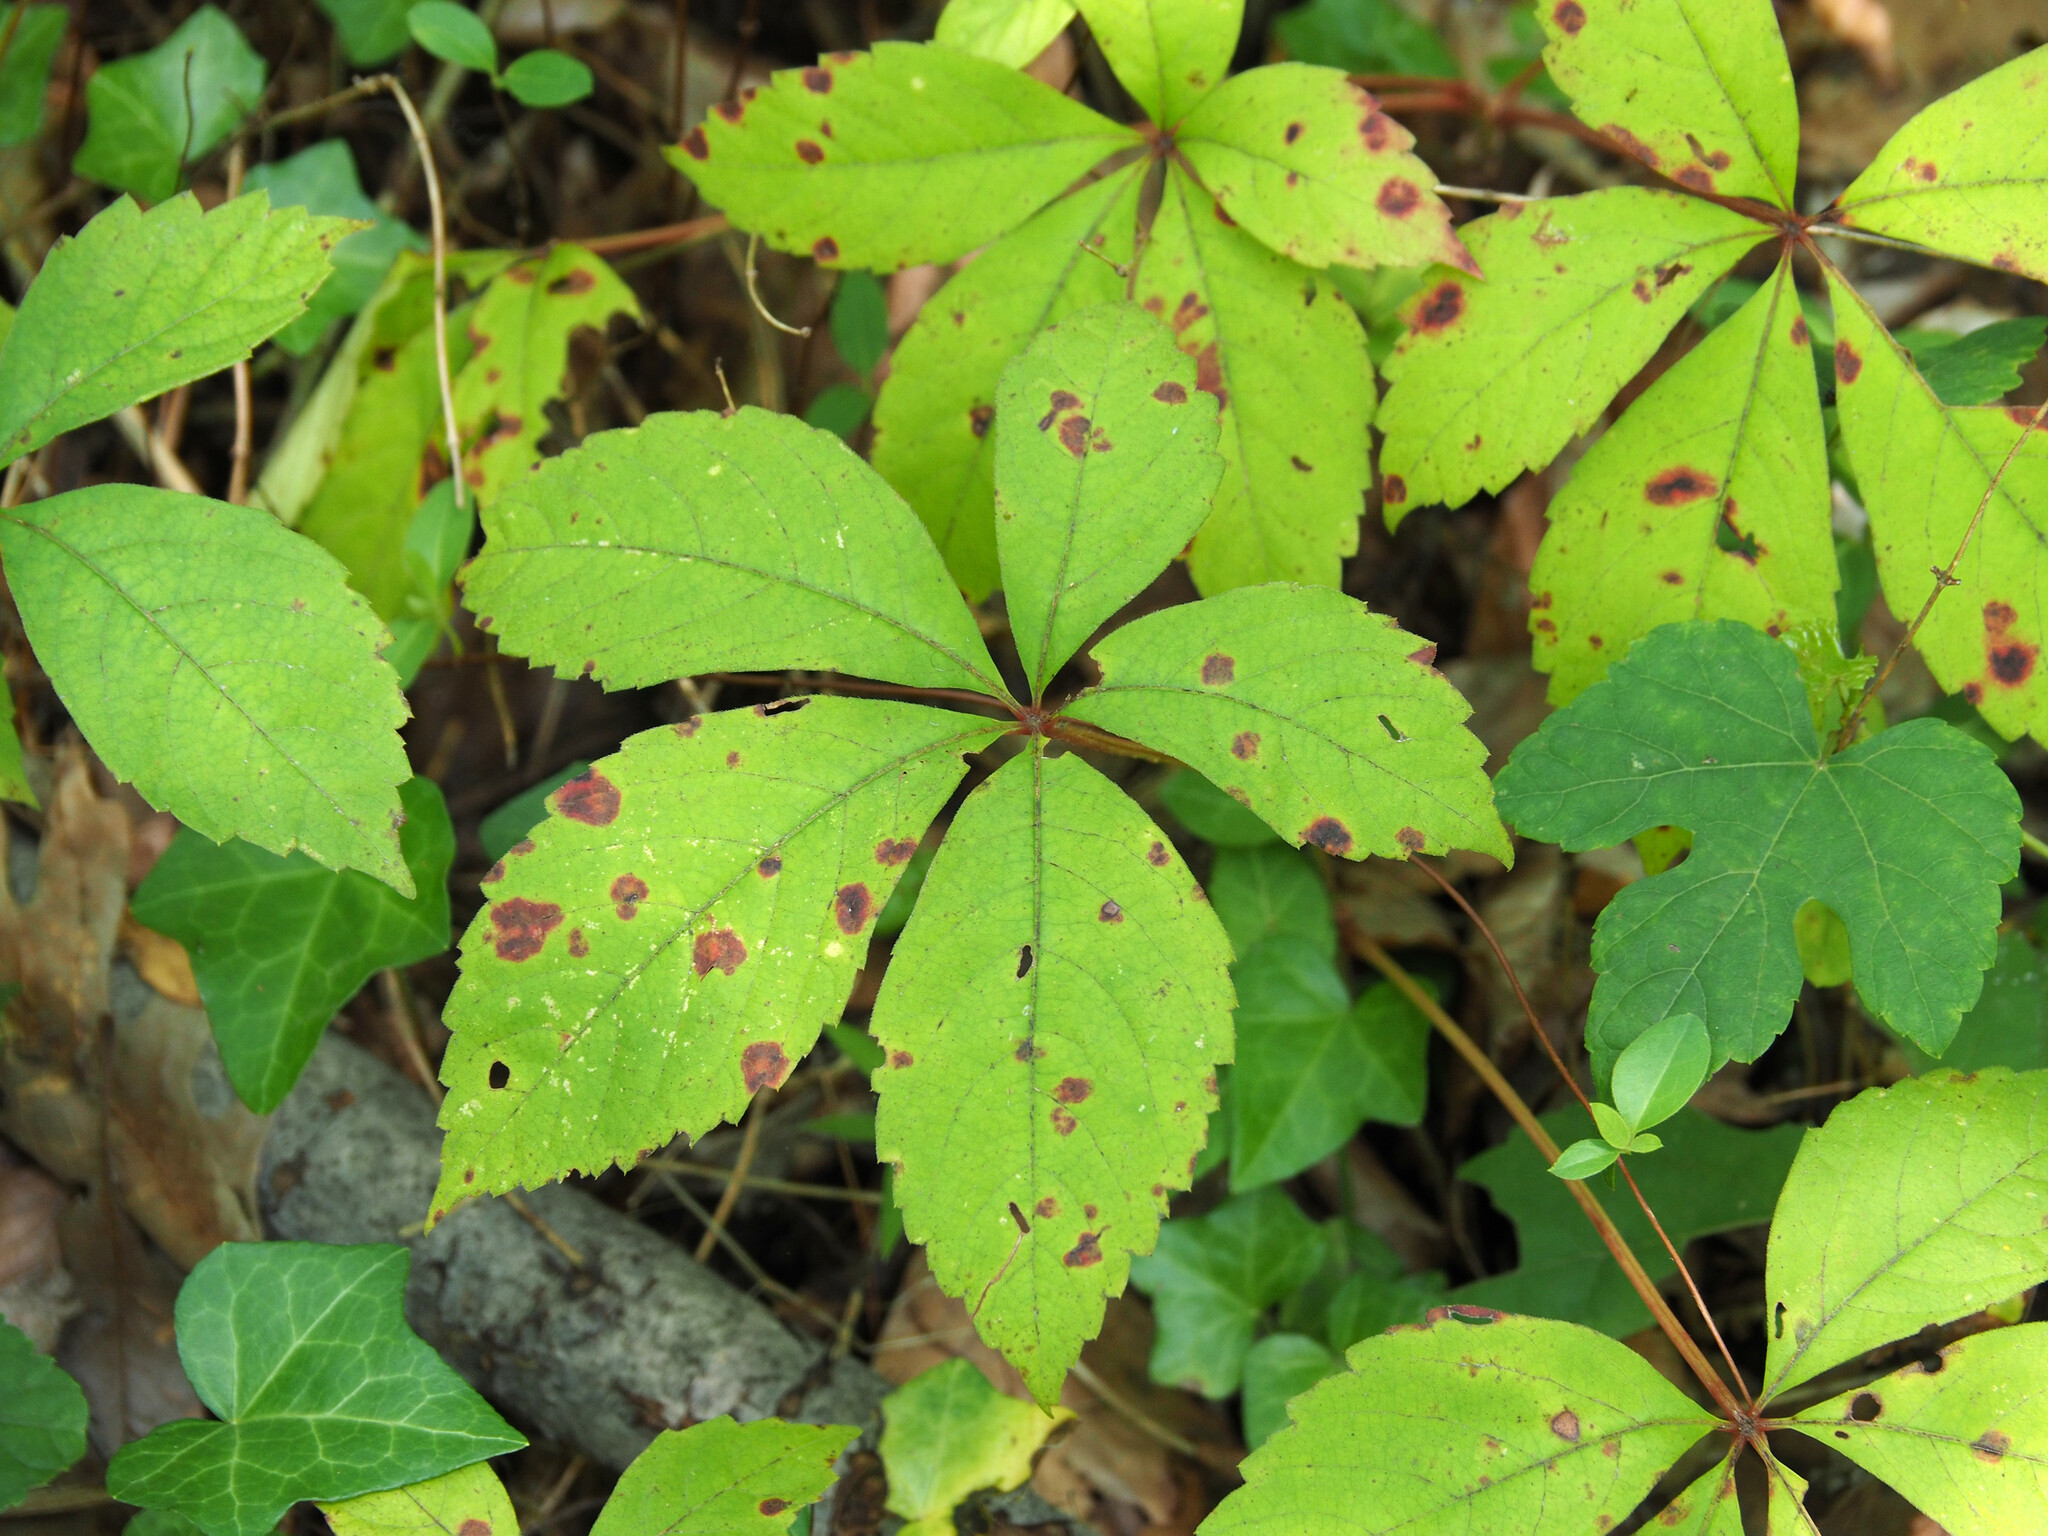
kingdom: Fungi
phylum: Ascomycota
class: Dothideomycetes
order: Botryosphaeriales
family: Phyllostictaceae
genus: Phyllosticta
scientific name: Phyllosticta parthenocissi
